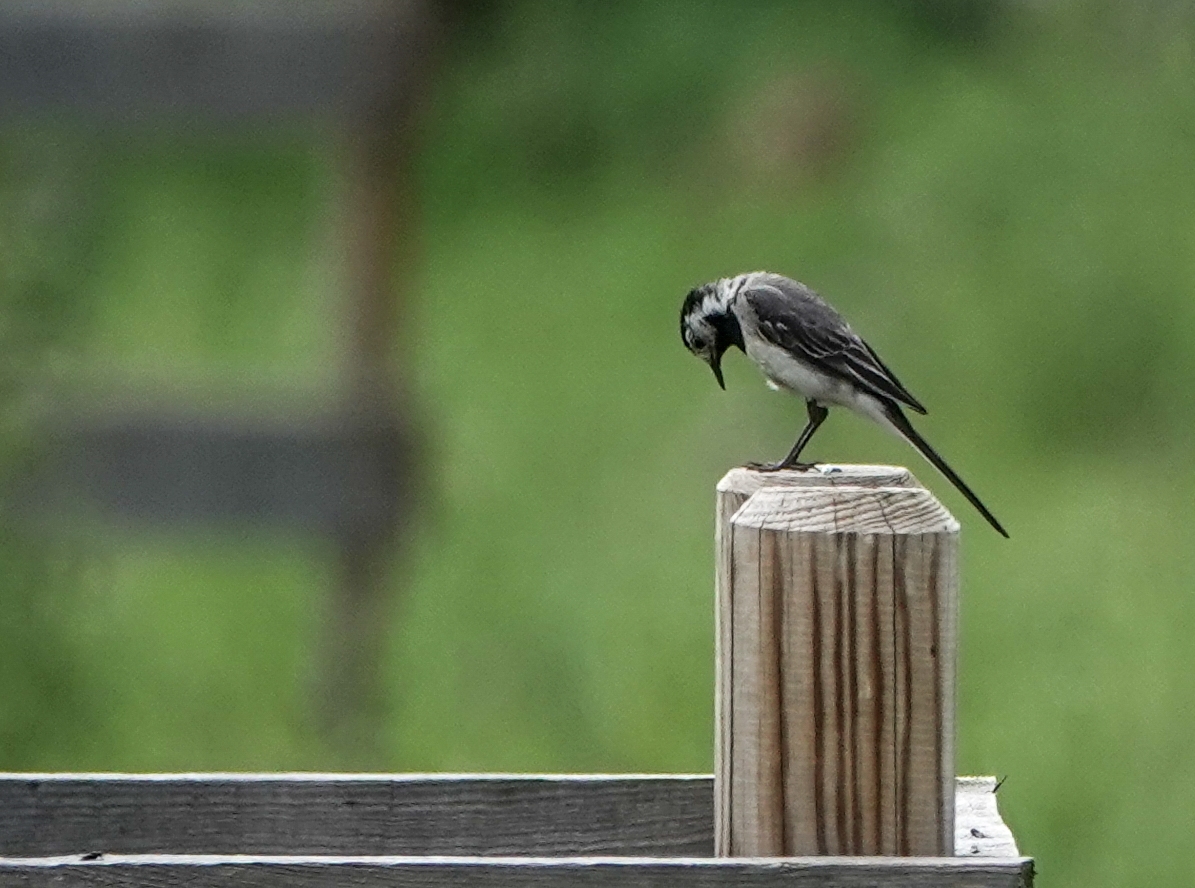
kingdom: Animalia
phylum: Chordata
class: Aves
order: Passeriformes
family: Motacillidae
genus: Motacilla
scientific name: Motacilla alba
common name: White wagtail
